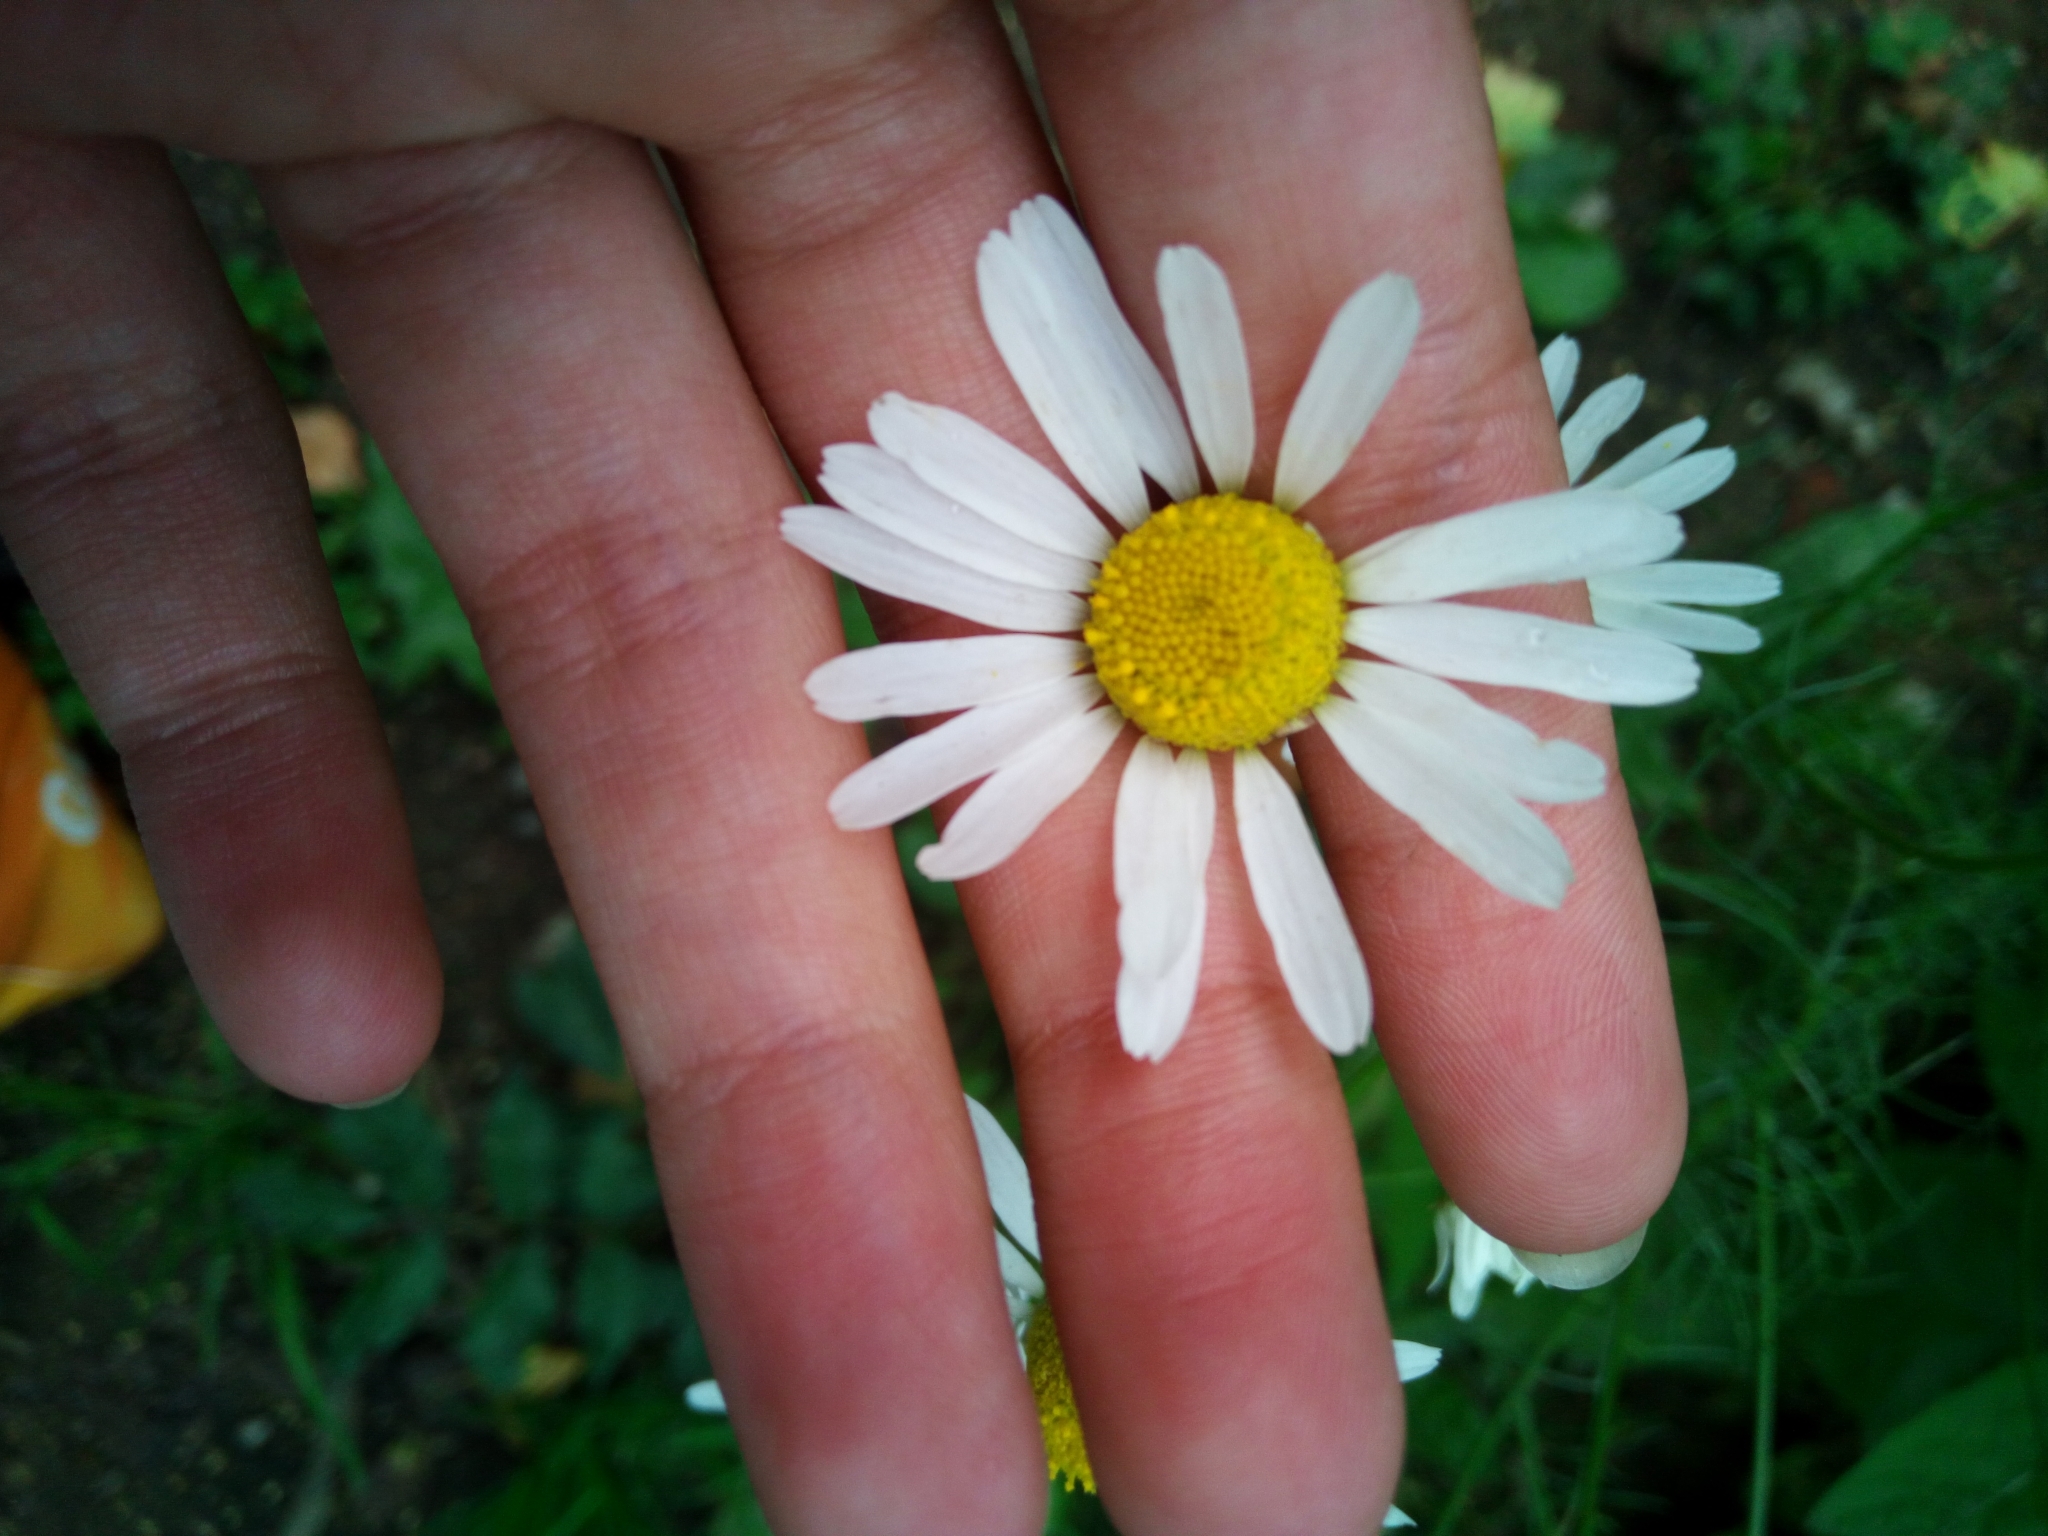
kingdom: Plantae
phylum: Tracheophyta
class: Magnoliopsida
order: Asterales
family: Asteraceae
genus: Tripleurospermum
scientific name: Tripleurospermum inodorum
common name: Scentless mayweed
